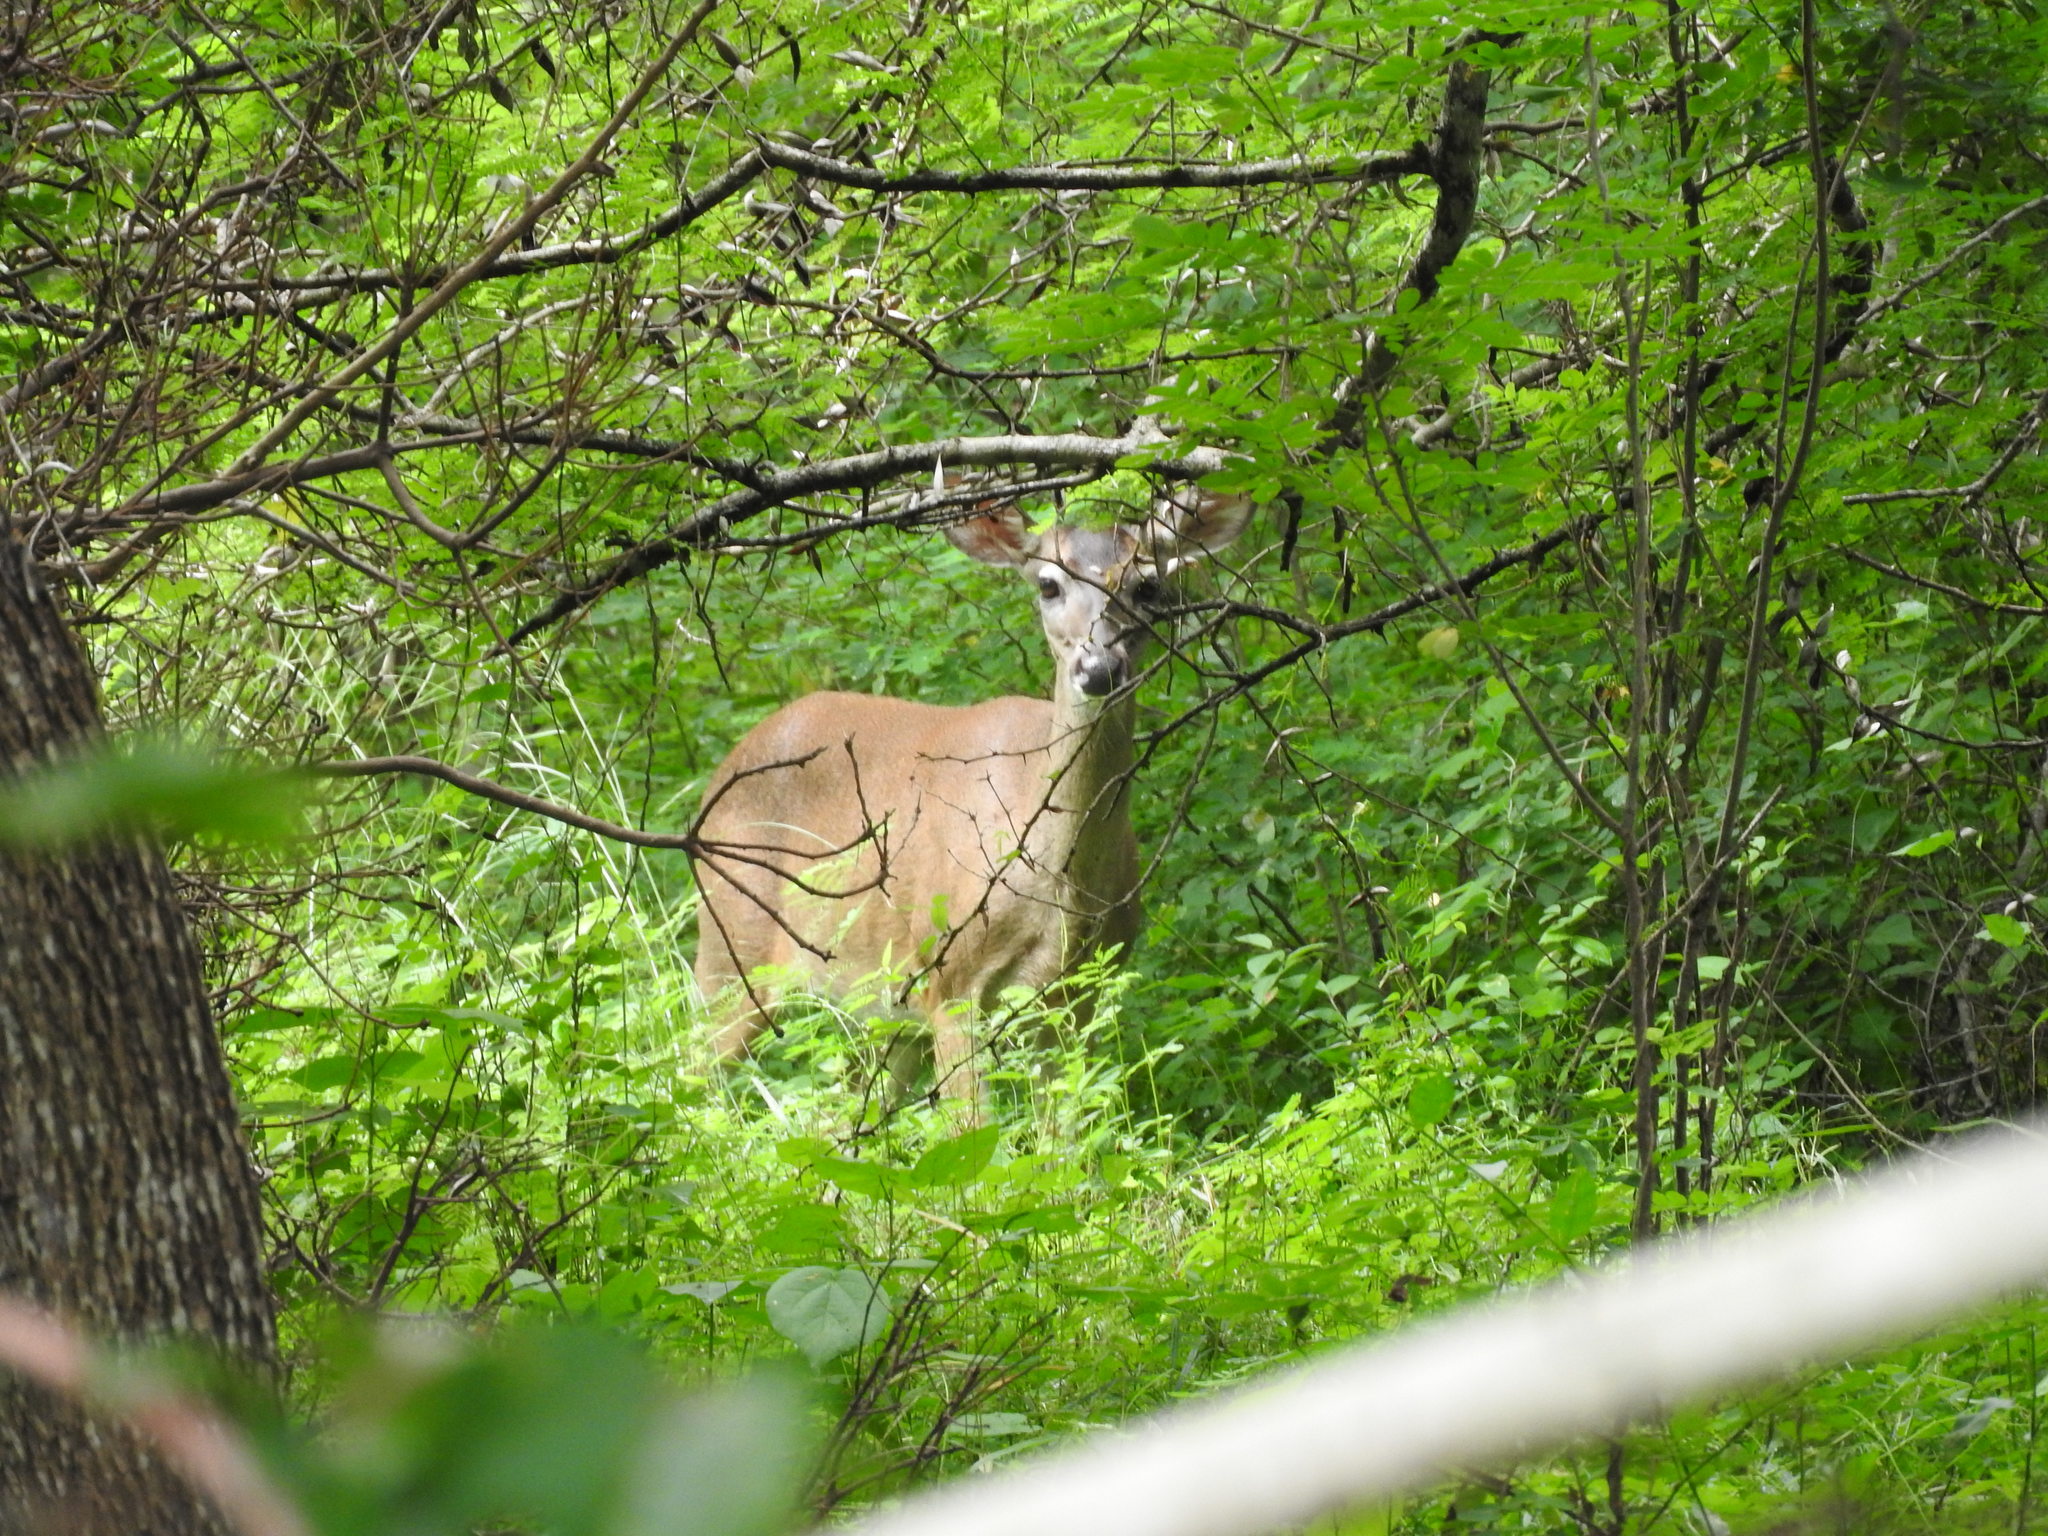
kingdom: Animalia
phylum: Chordata
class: Mammalia
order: Artiodactyla
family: Cervidae
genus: Odocoileus
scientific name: Odocoileus virginianus
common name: White-tailed deer
